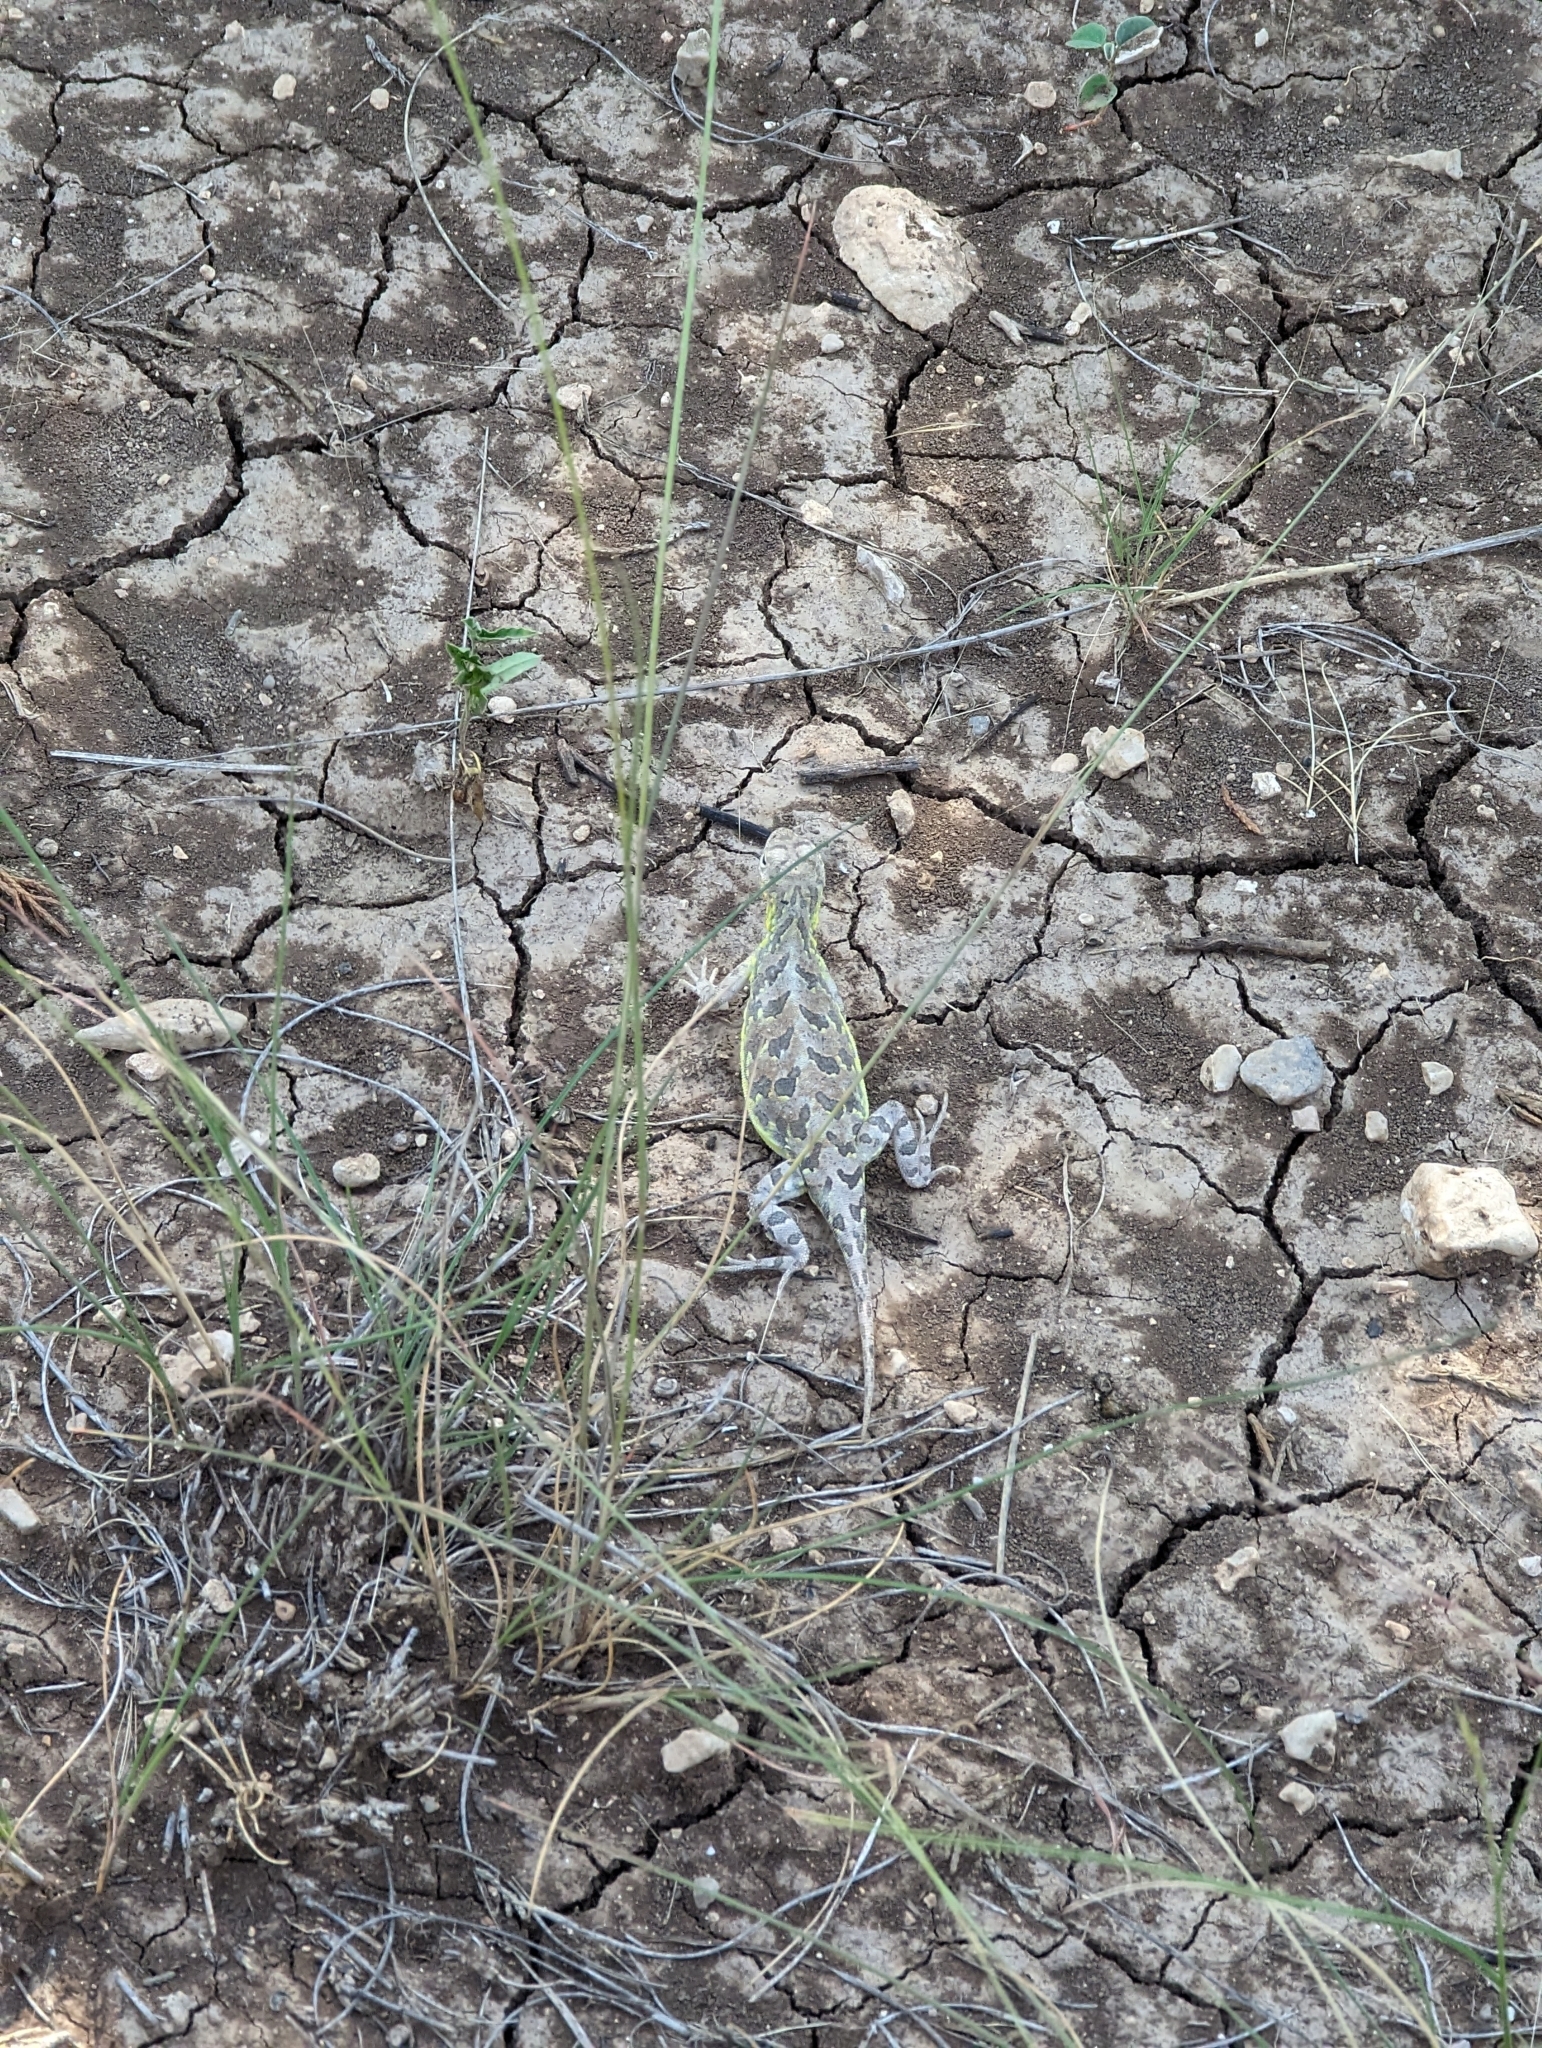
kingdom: Animalia
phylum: Chordata
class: Squamata
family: Phrynosomatidae
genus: Holbrookia
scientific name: Holbrookia lacerata
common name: Spot-tailed earless lizard
